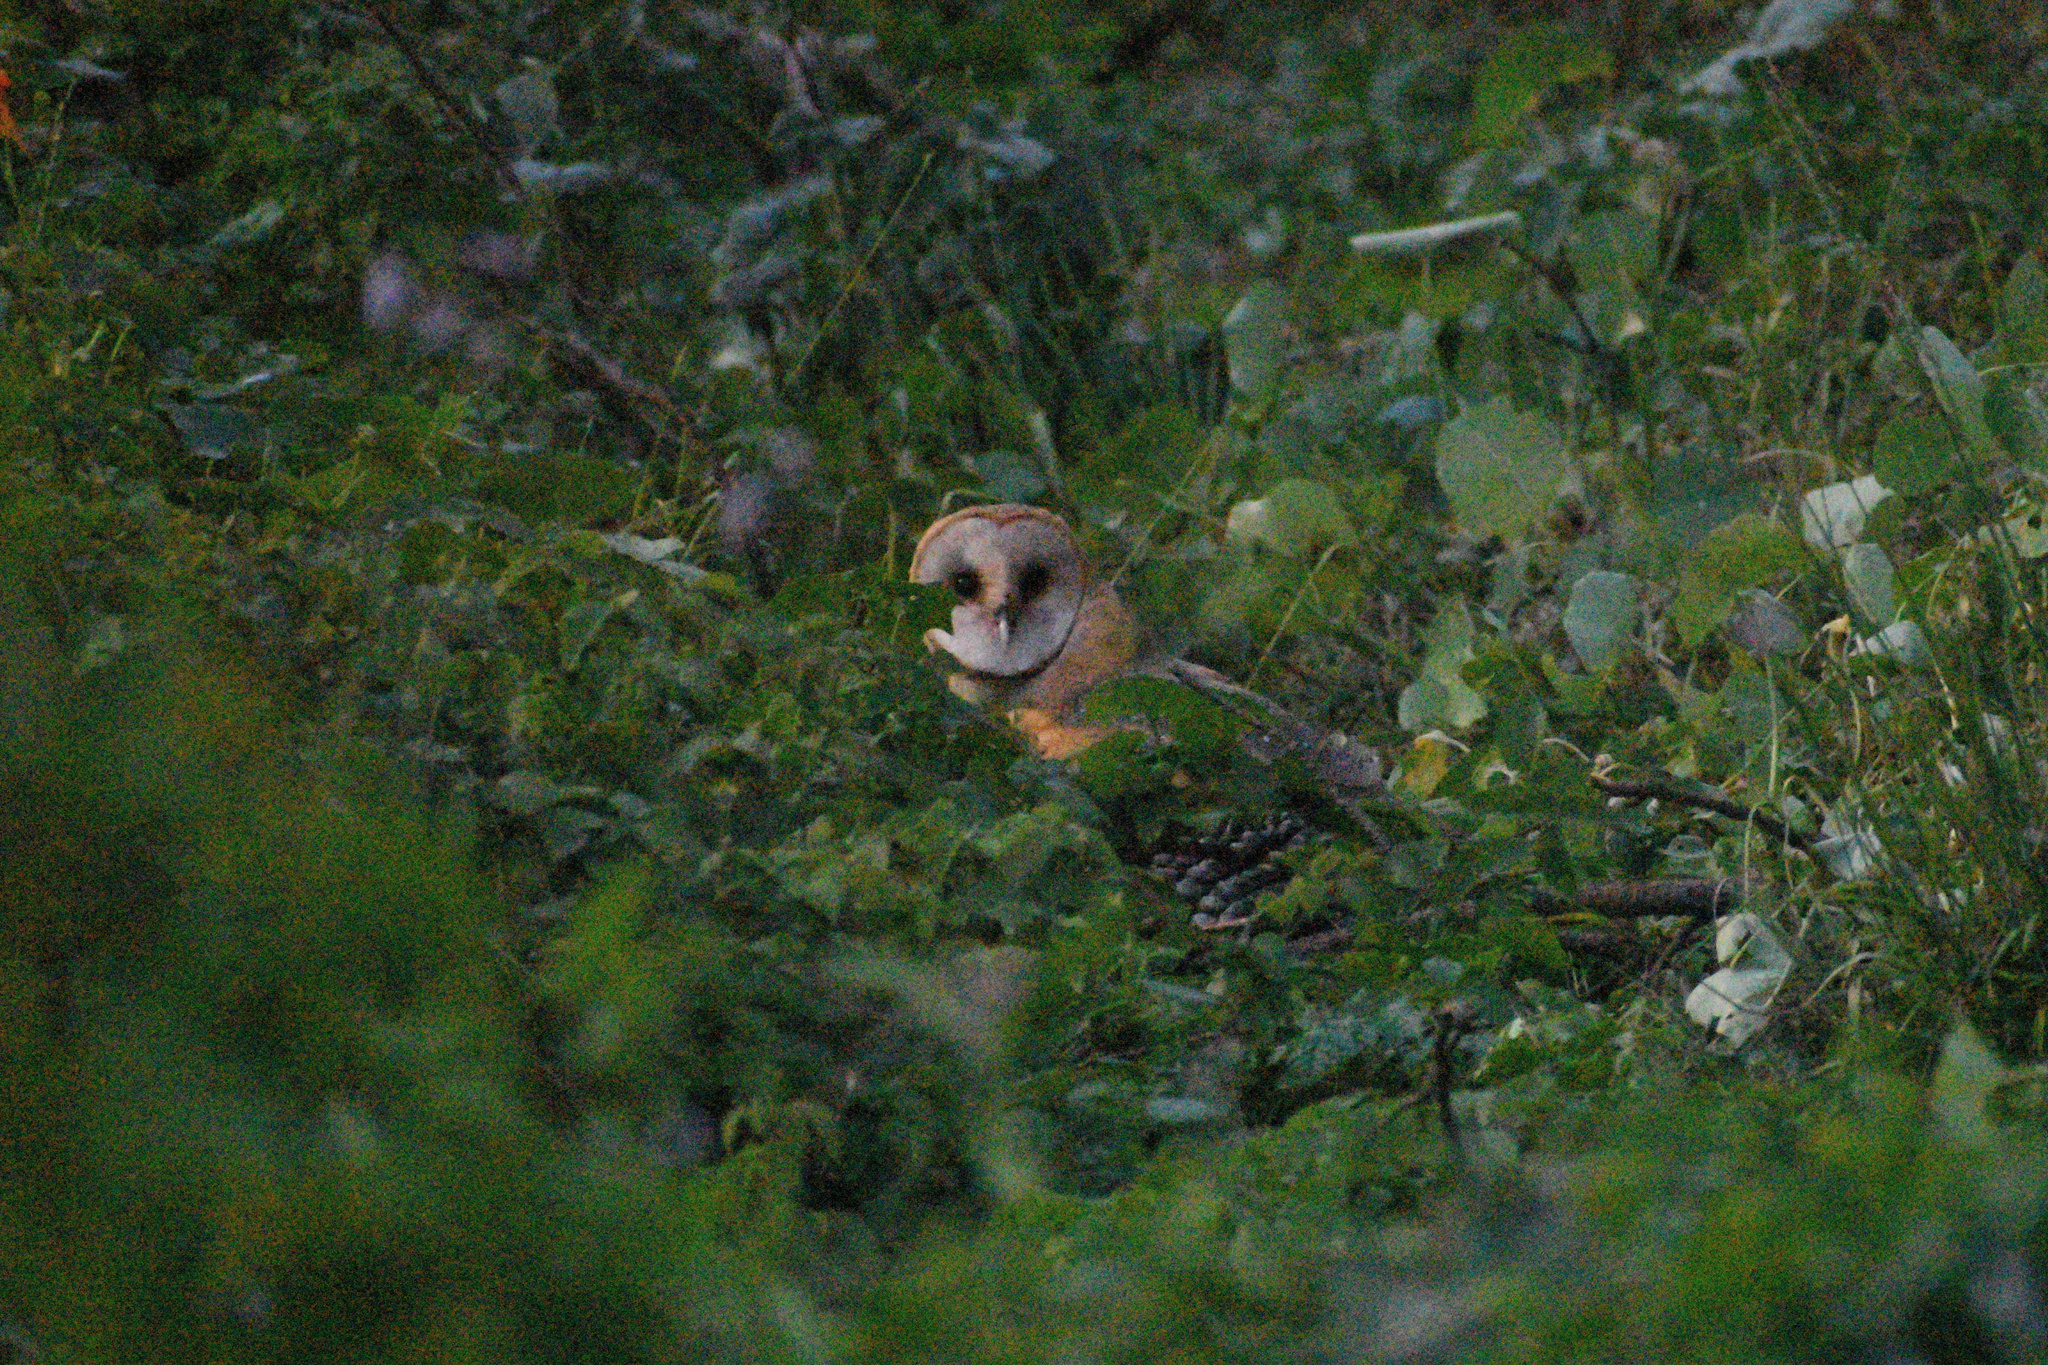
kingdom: Animalia
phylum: Chordata
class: Aves
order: Strigiformes
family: Tytonidae
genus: Tyto
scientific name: Tyto alba
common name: Barn owl
